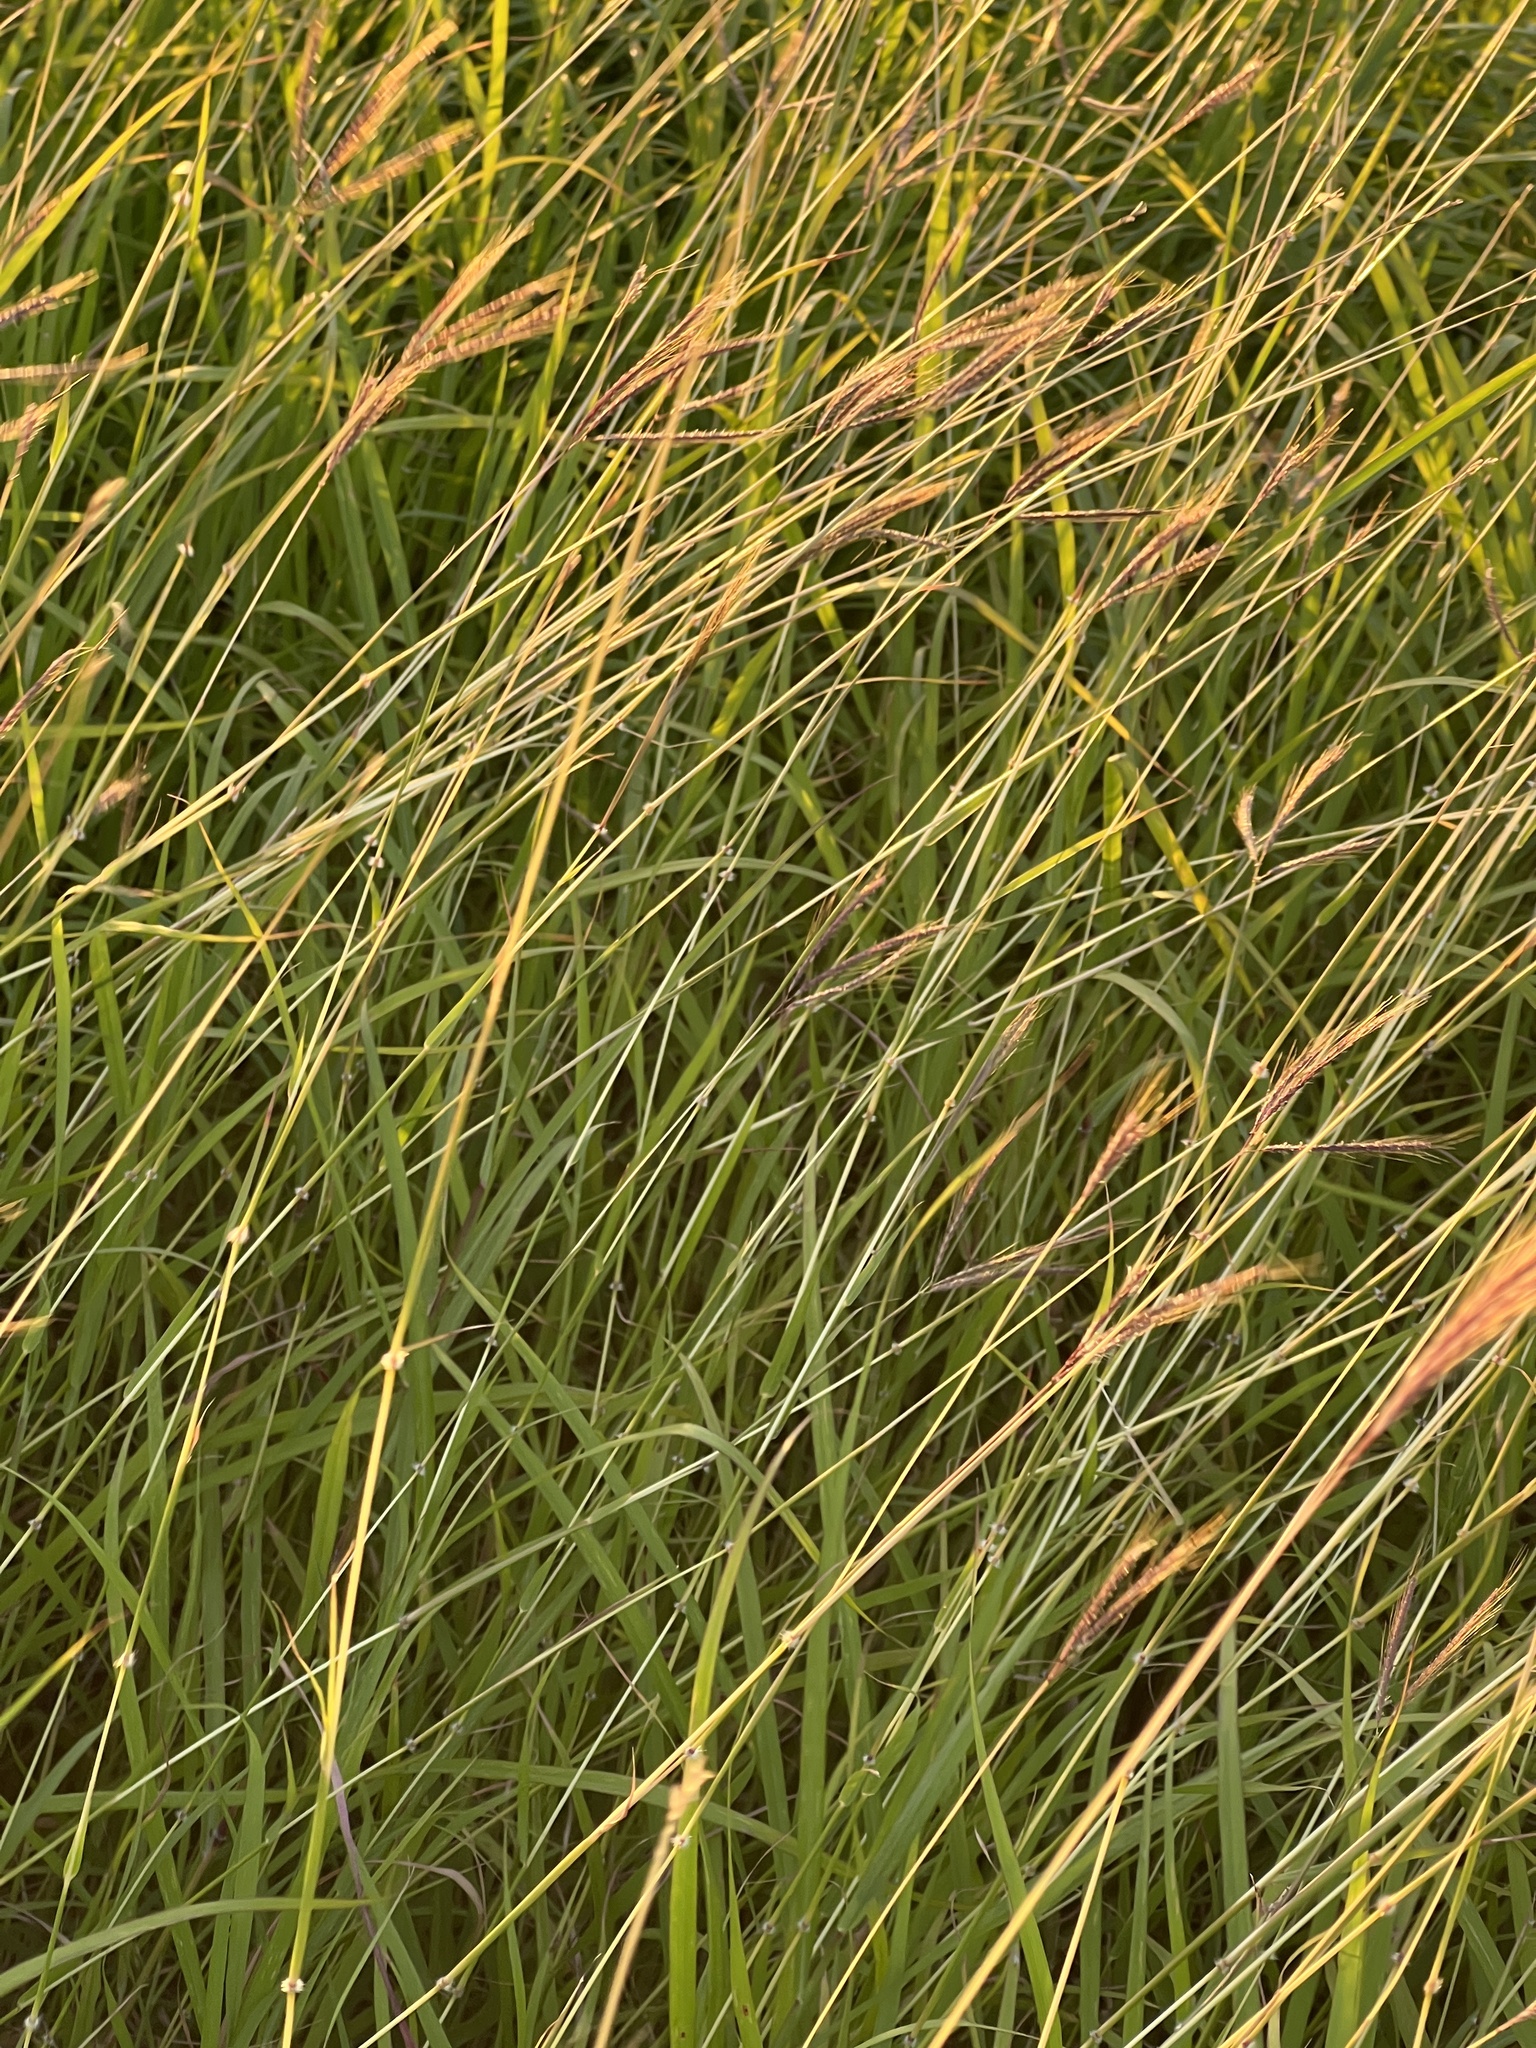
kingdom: Plantae
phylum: Tracheophyta
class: Liliopsida
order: Poales
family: Poaceae
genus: Dichanthium
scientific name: Dichanthium annulatum
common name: Kleberg's bluestem
